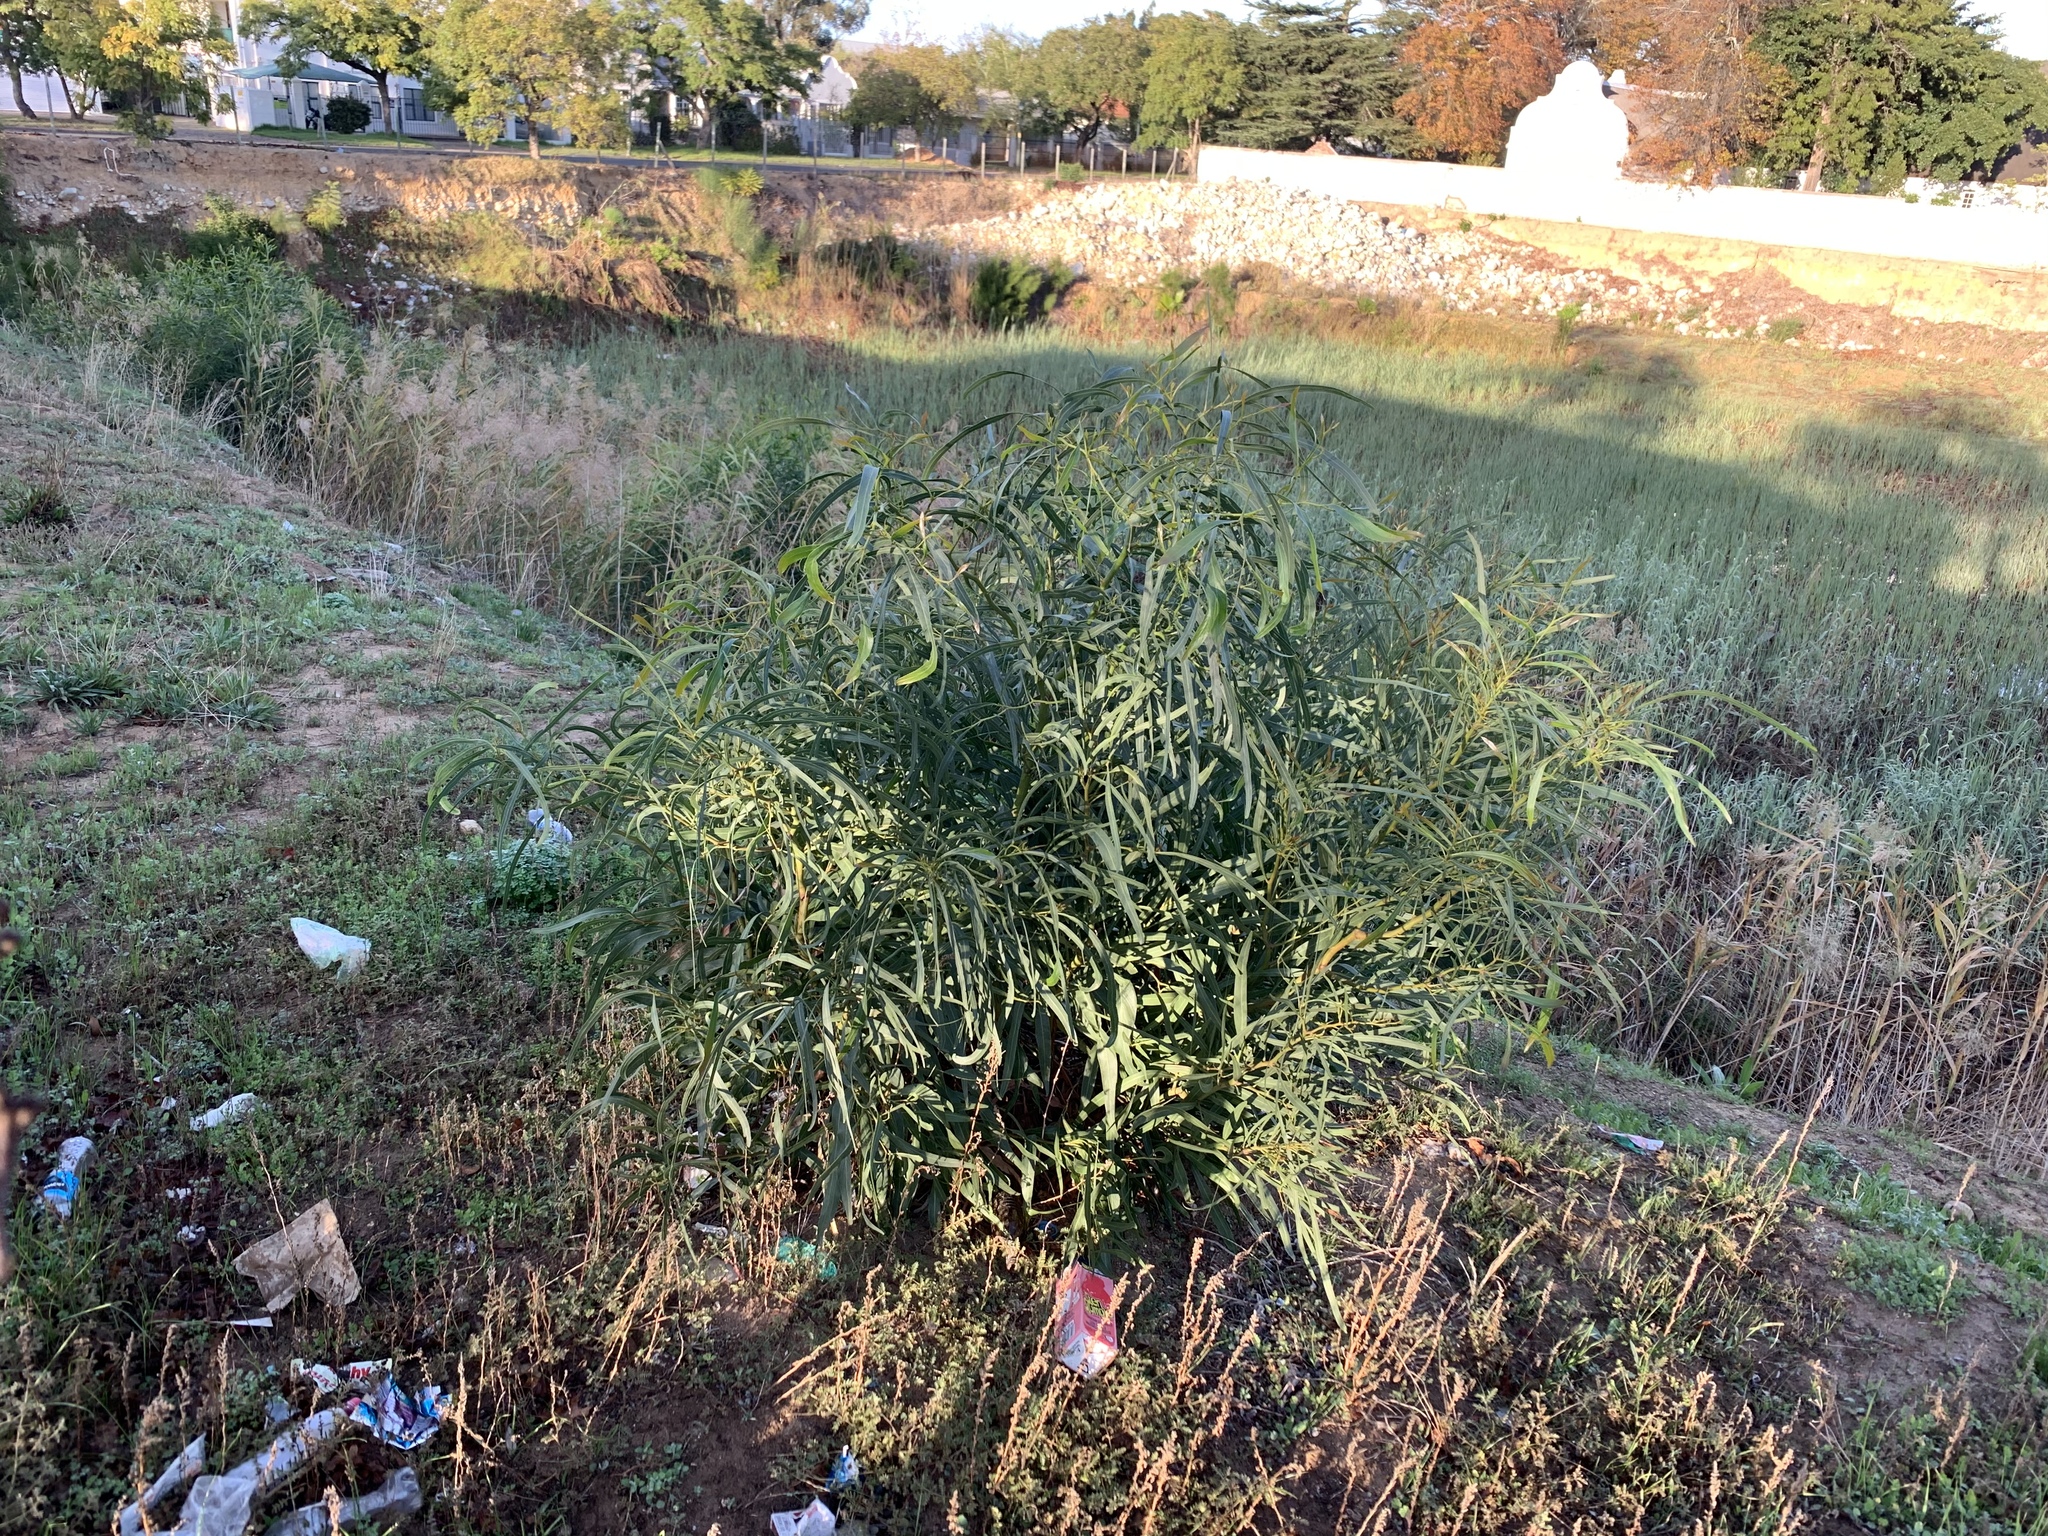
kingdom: Plantae
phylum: Tracheophyta
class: Magnoliopsida
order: Fabales
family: Fabaceae
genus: Acacia
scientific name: Acacia saligna
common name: Orange wattle
